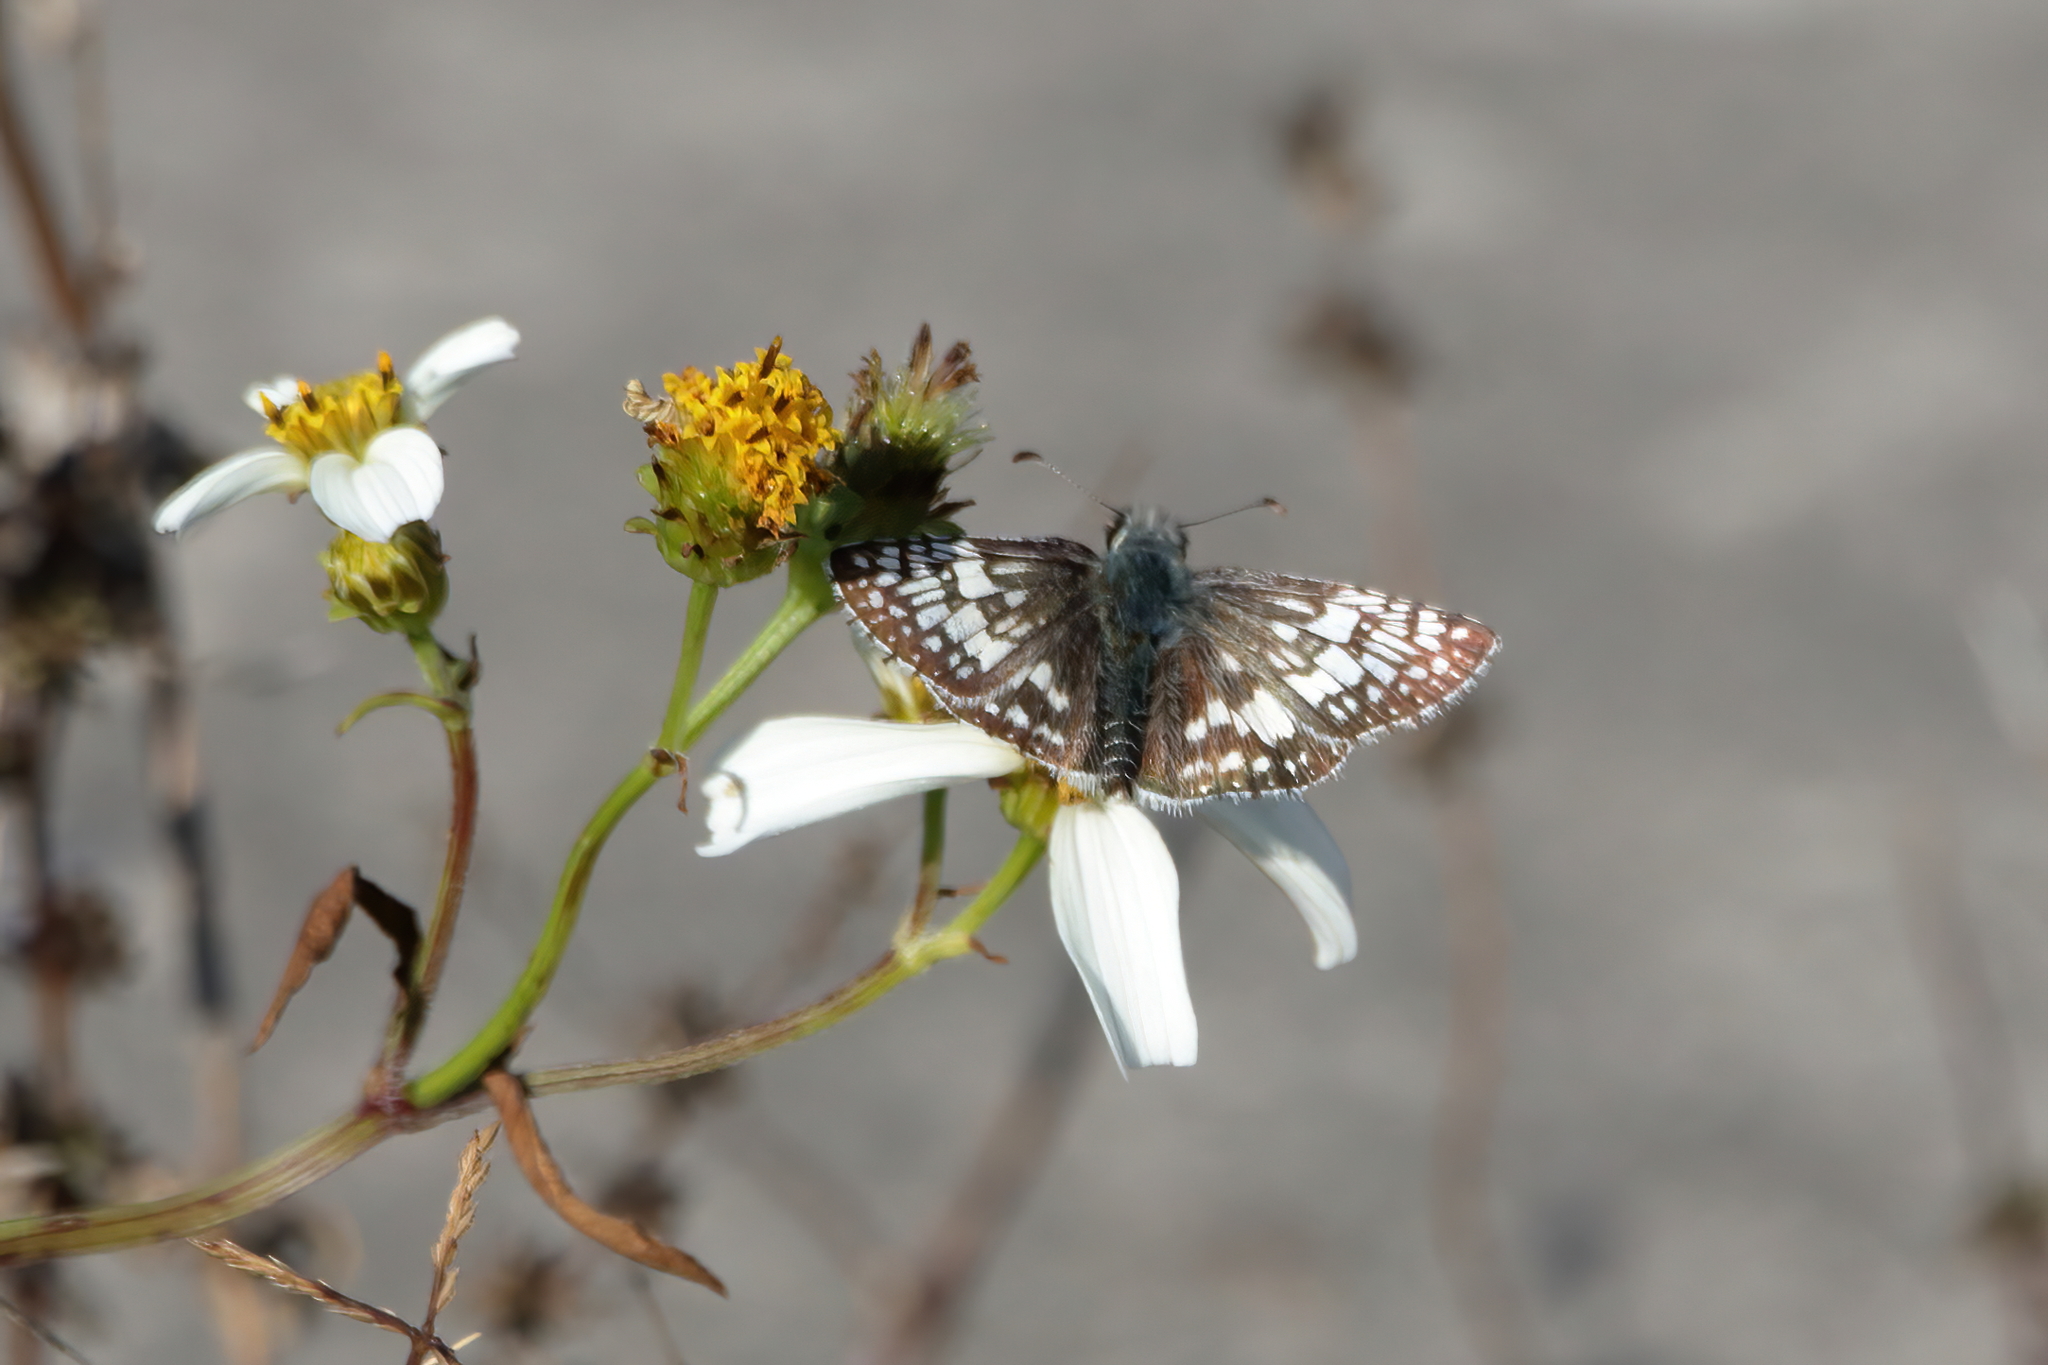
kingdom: Animalia
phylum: Arthropoda
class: Insecta
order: Lepidoptera
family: Hesperiidae
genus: Burnsius
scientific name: Burnsius albezens
